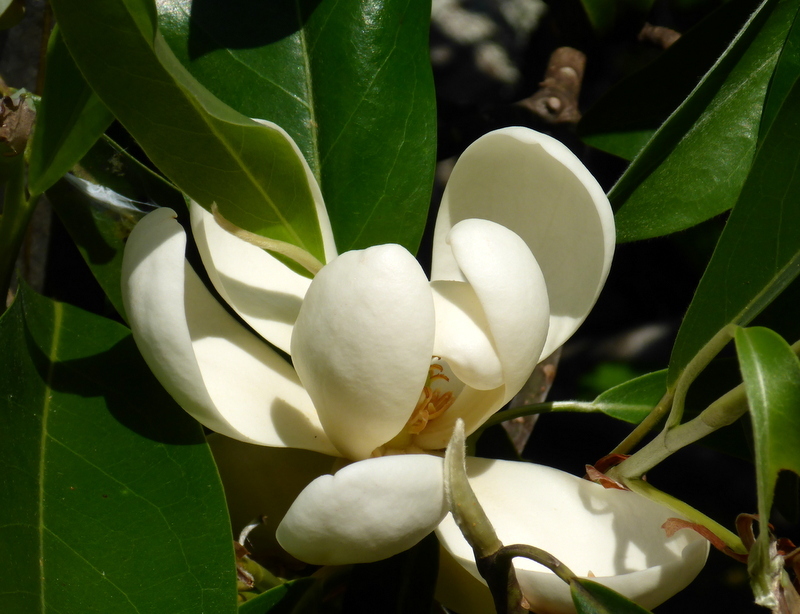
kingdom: Plantae
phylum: Tracheophyta
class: Magnoliopsida
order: Magnoliales
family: Magnoliaceae
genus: Magnolia
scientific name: Magnolia virginiana
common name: Swamp bay
